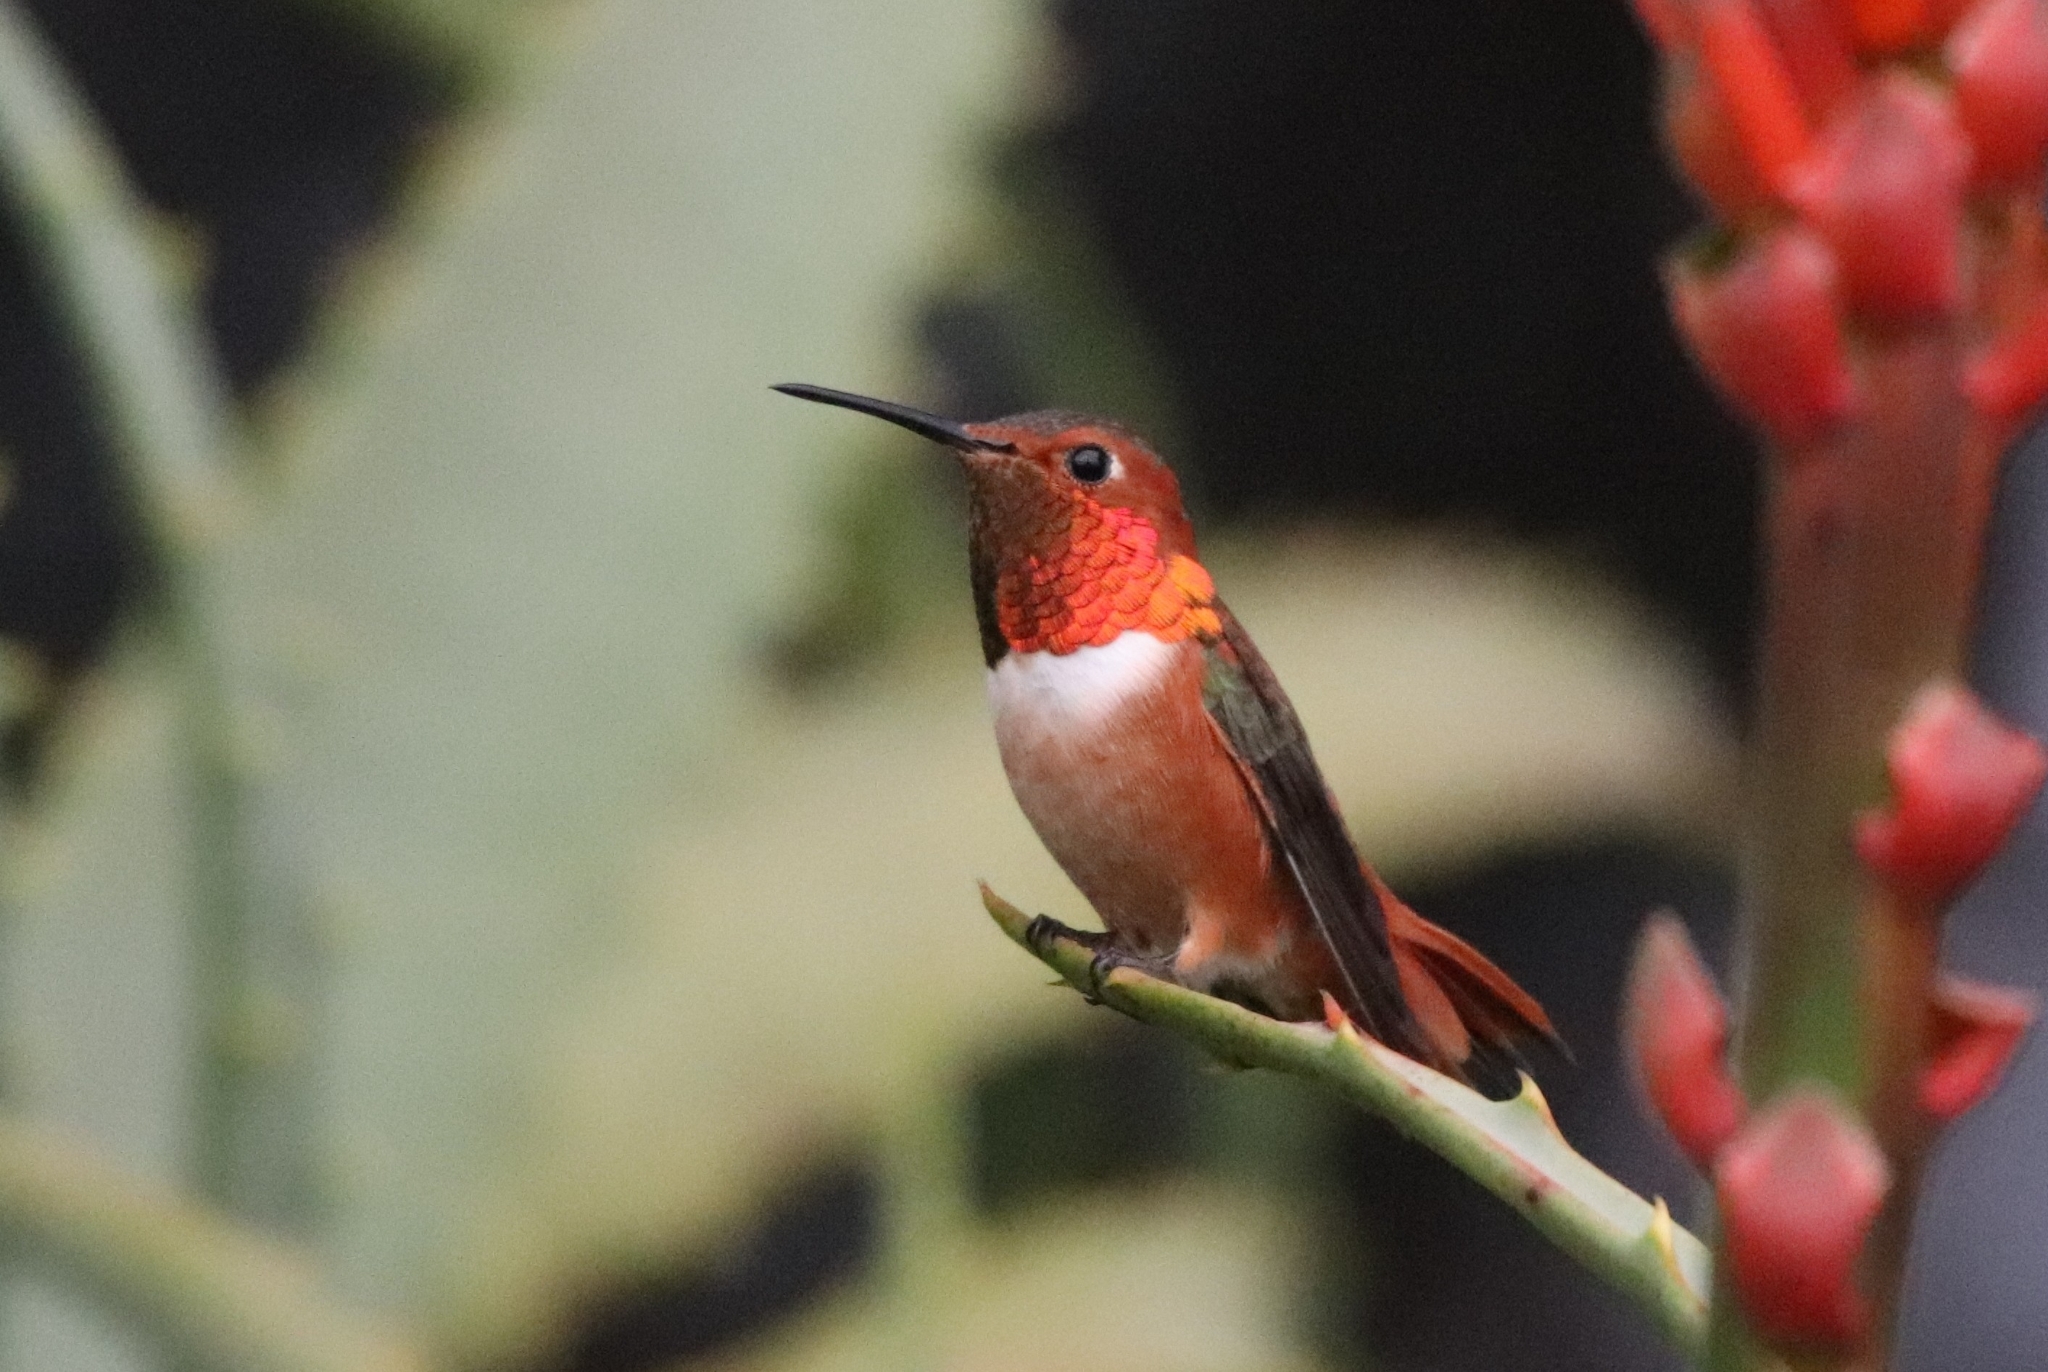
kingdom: Animalia
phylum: Chordata
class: Aves
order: Apodiformes
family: Trochilidae
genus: Selasphorus
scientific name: Selasphorus sasin
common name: Allen's hummingbird
